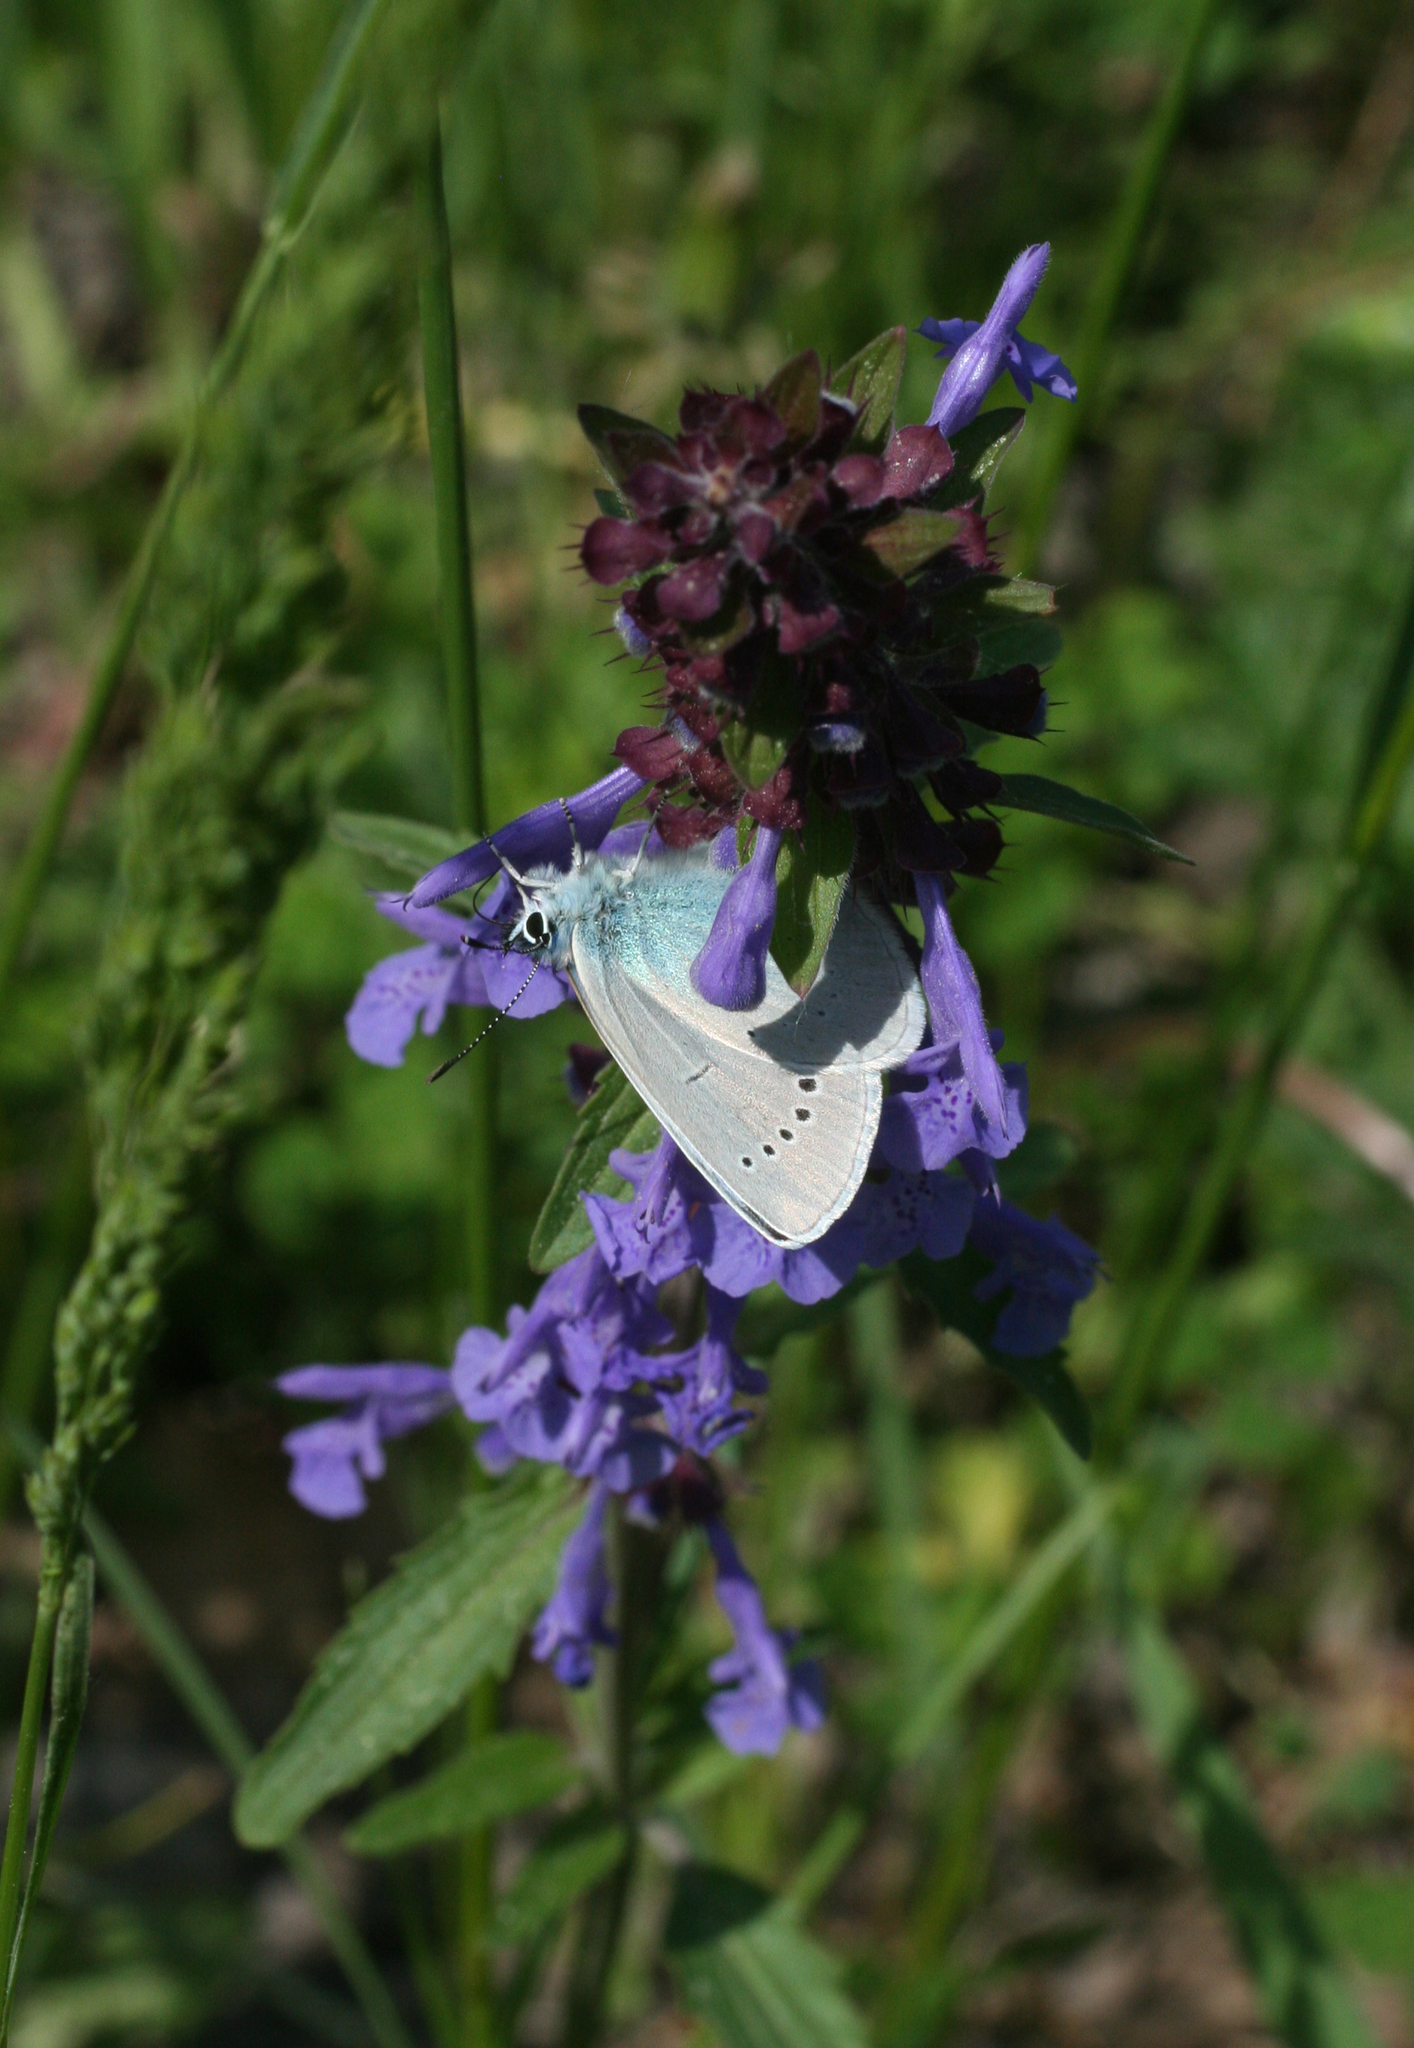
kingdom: Animalia
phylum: Arthropoda
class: Insecta
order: Lepidoptera
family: Lycaenidae
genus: Glaucopsyche
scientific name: Glaucopsyche lycormas
